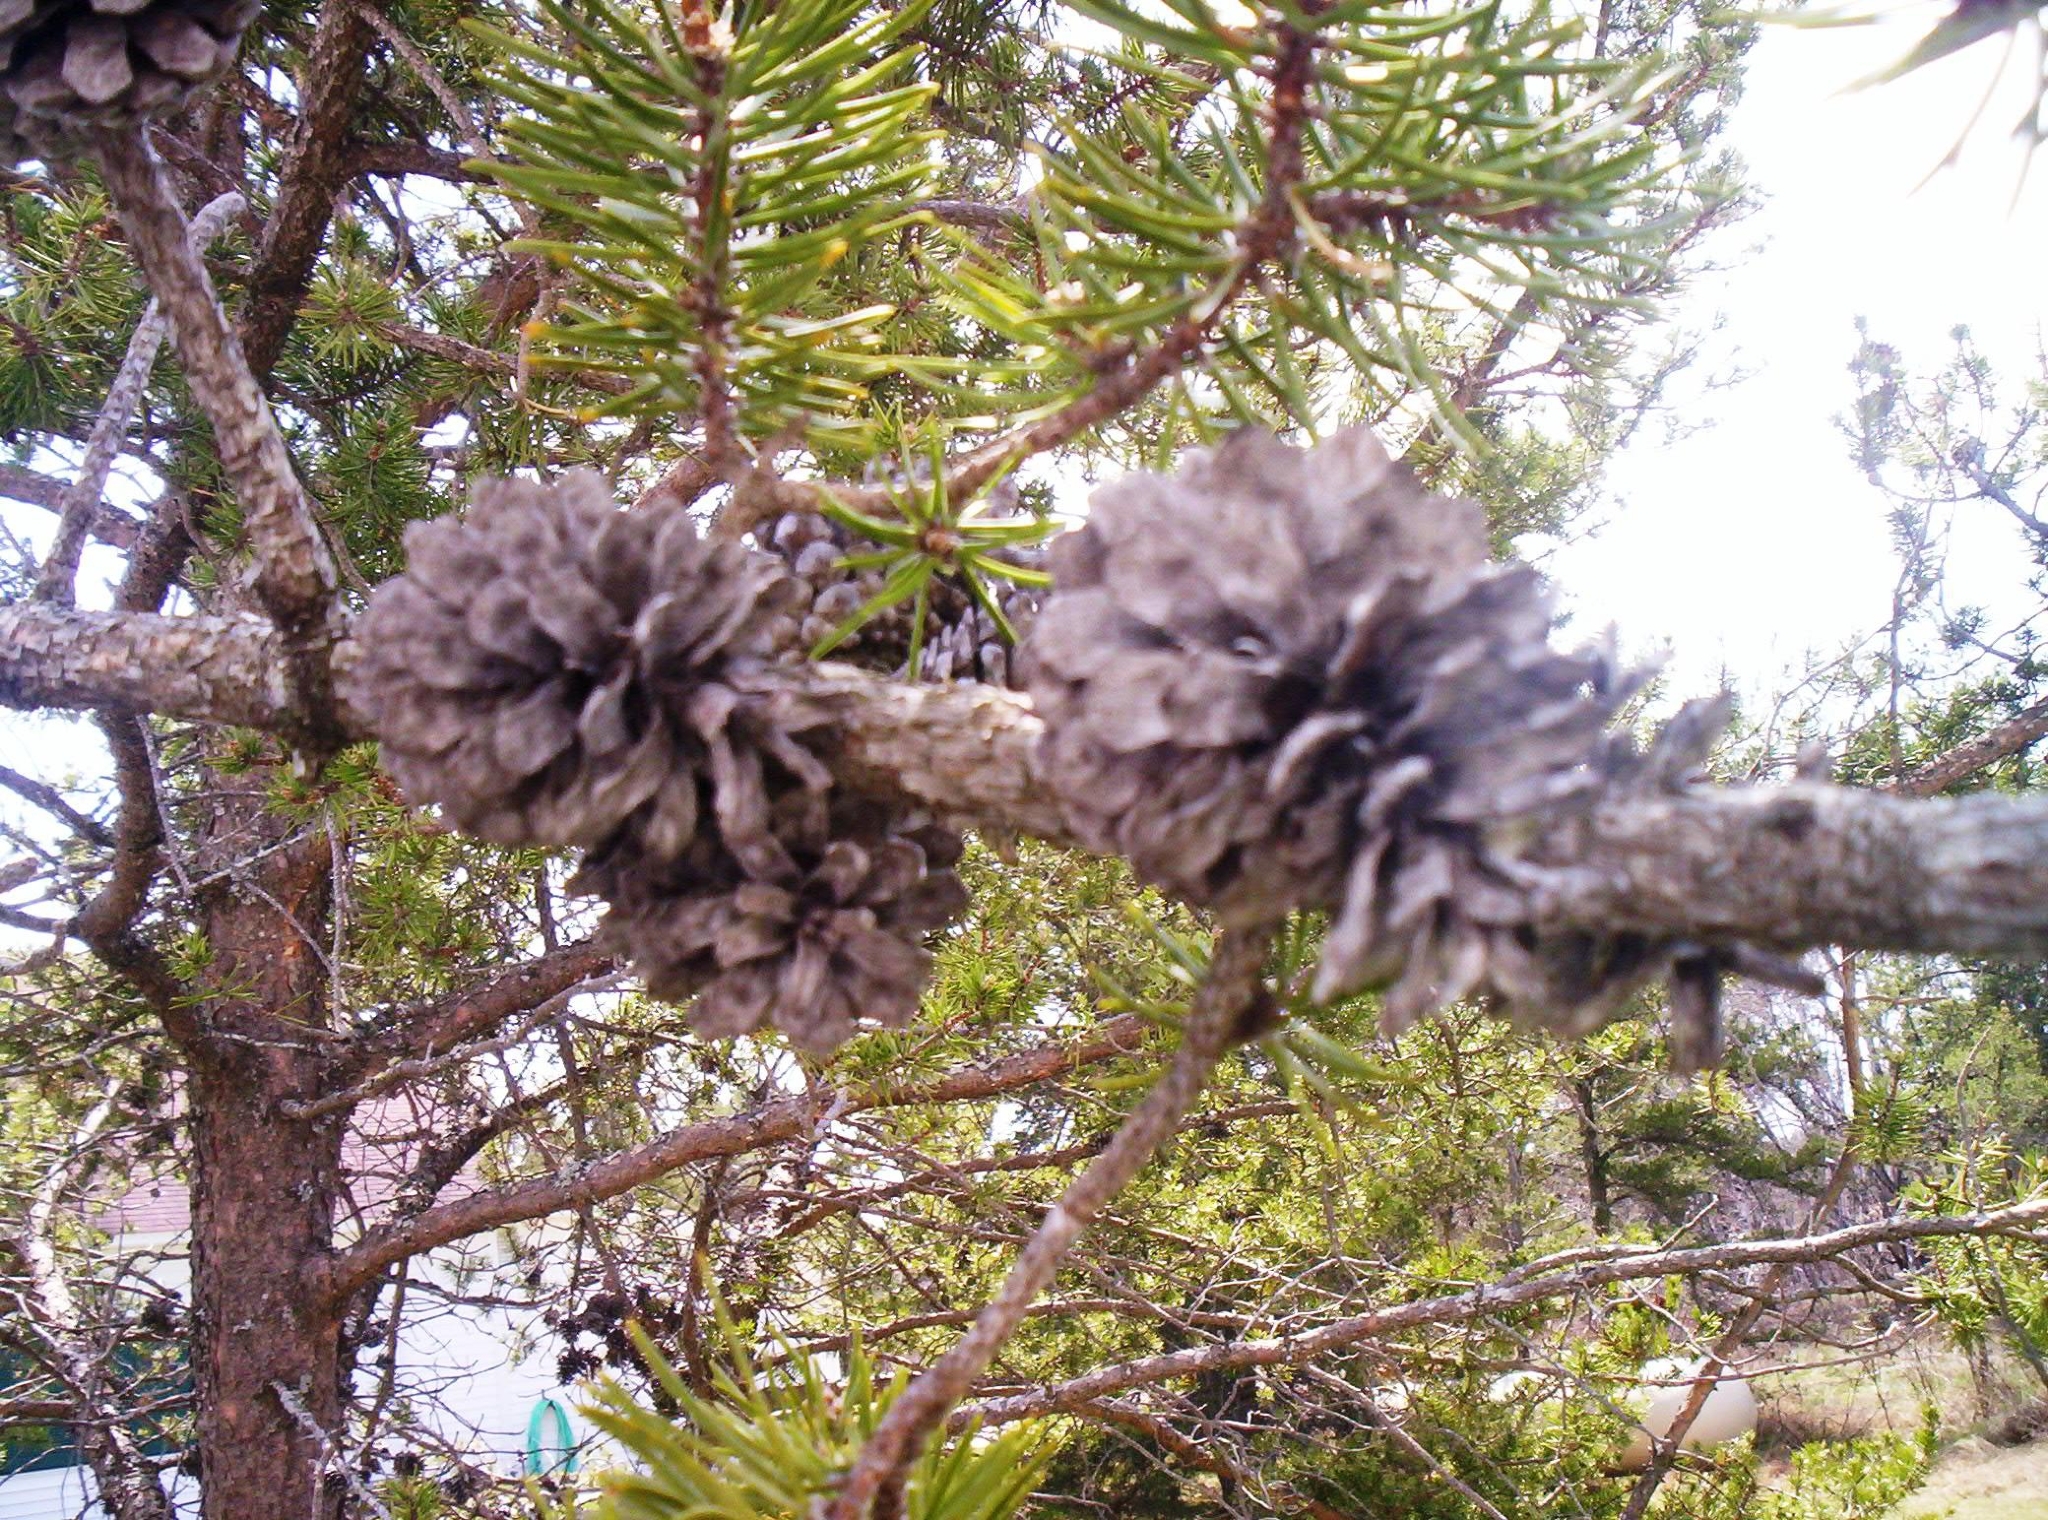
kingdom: Plantae
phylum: Tracheophyta
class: Pinopsida
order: Pinales
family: Pinaceae
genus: Pinus
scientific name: Pinus banksiana
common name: Jack pine
